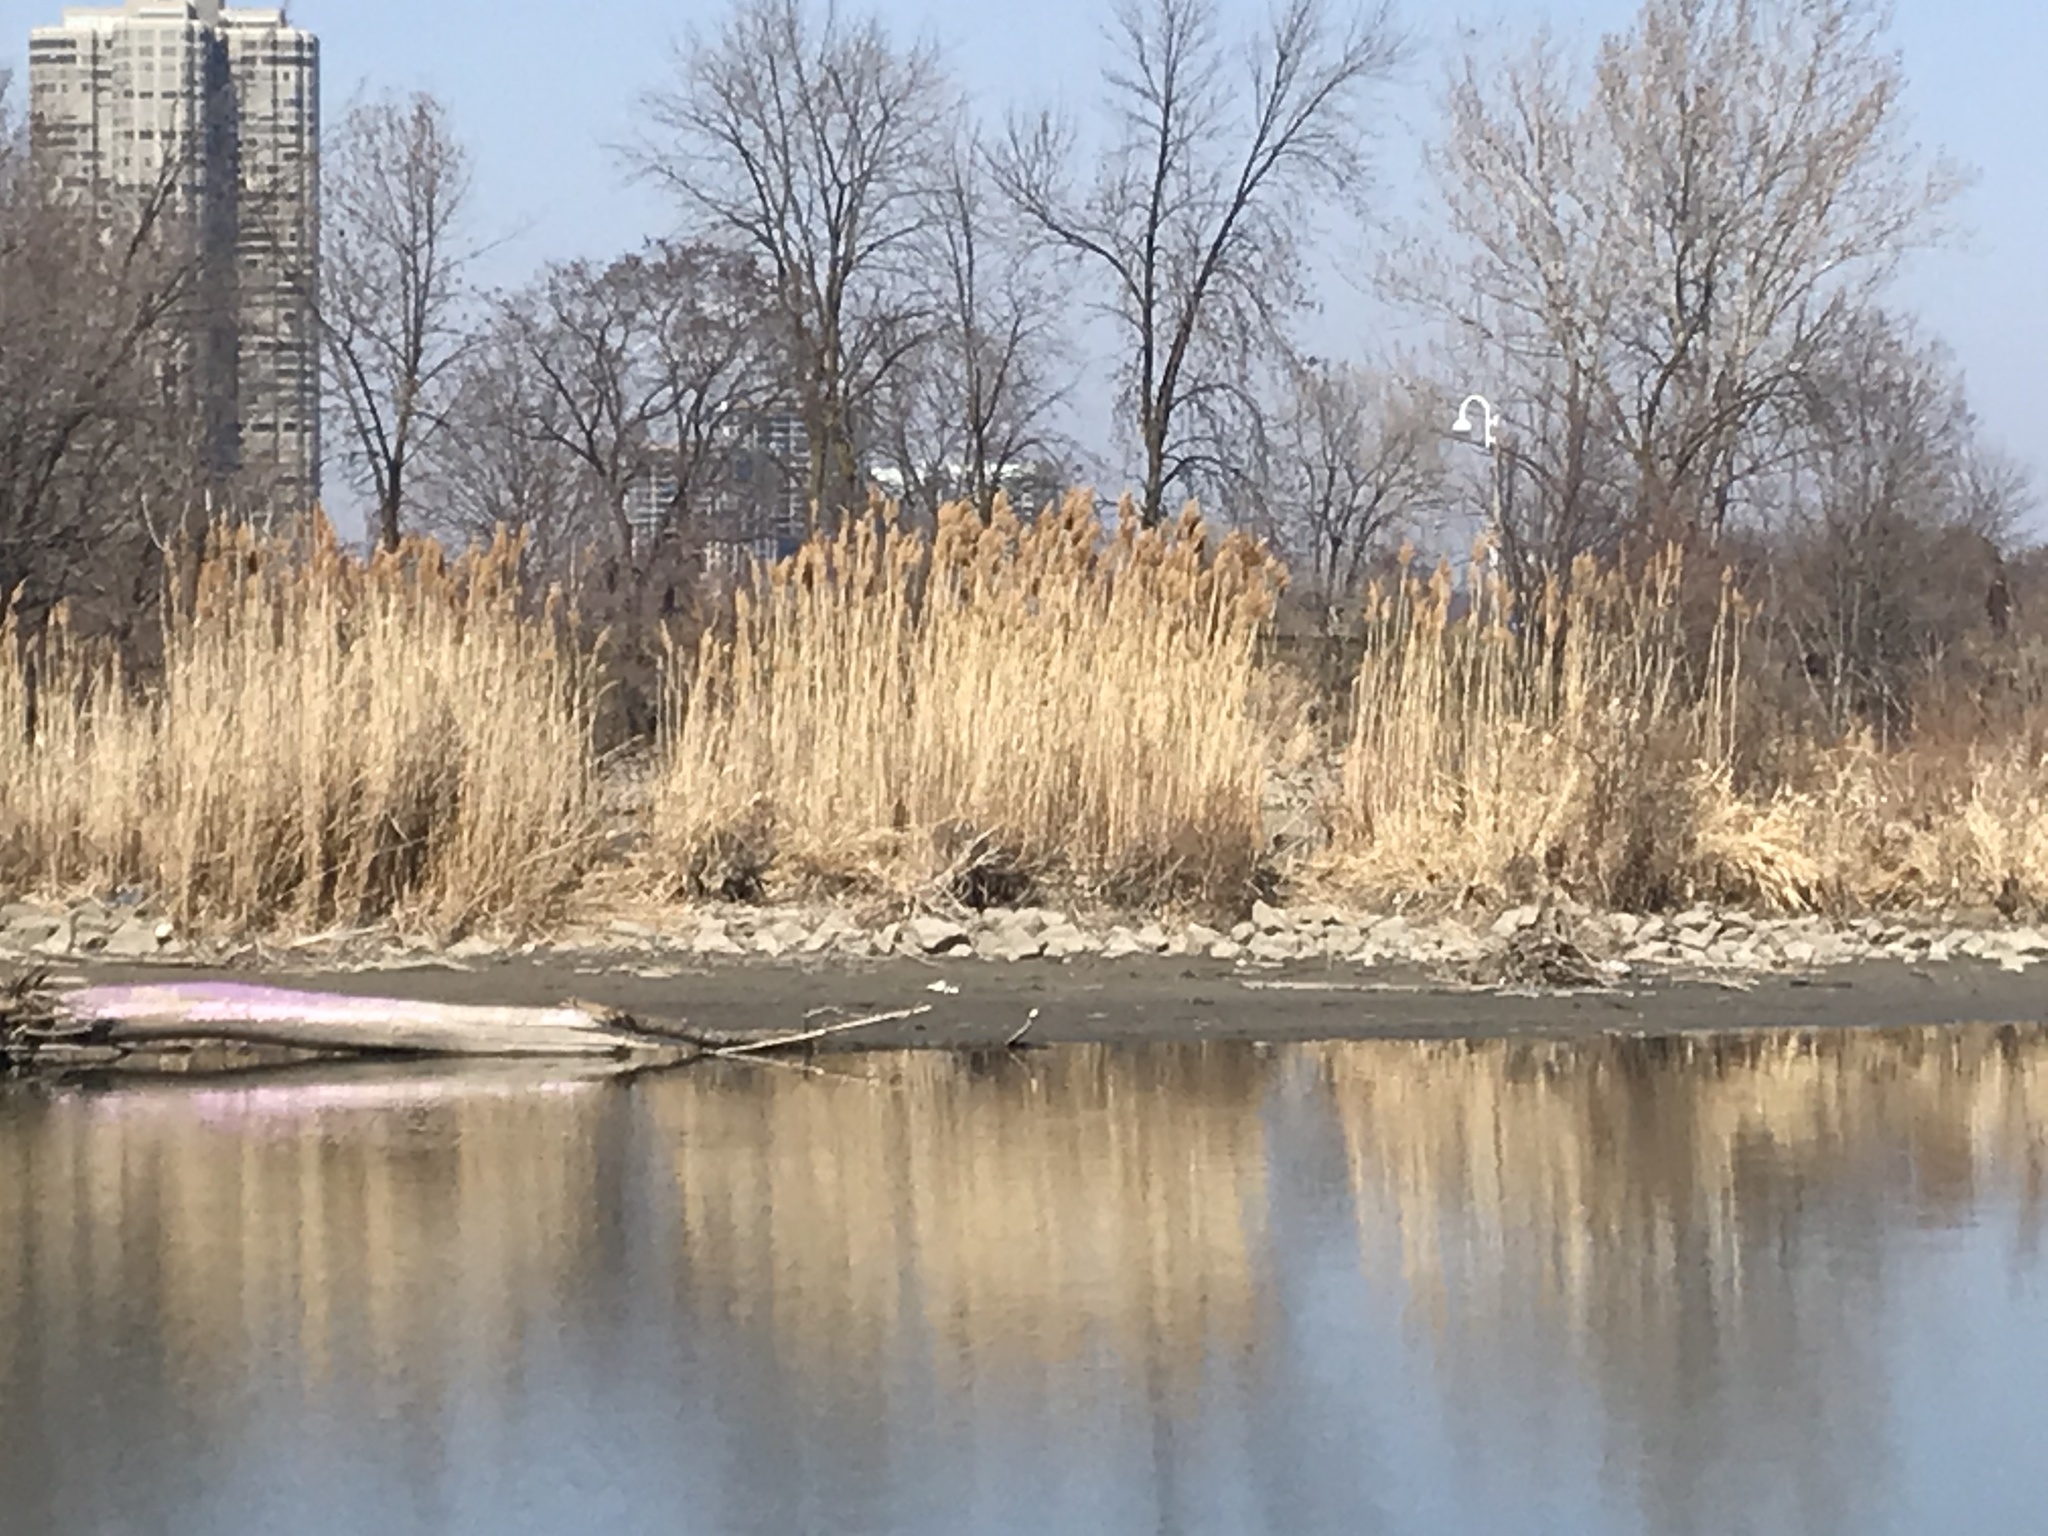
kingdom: Plantae
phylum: Tracheophyta
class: Liliopsida
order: Poales
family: Poaceae
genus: Phragmites
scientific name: Phragmites australis
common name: Common reed
